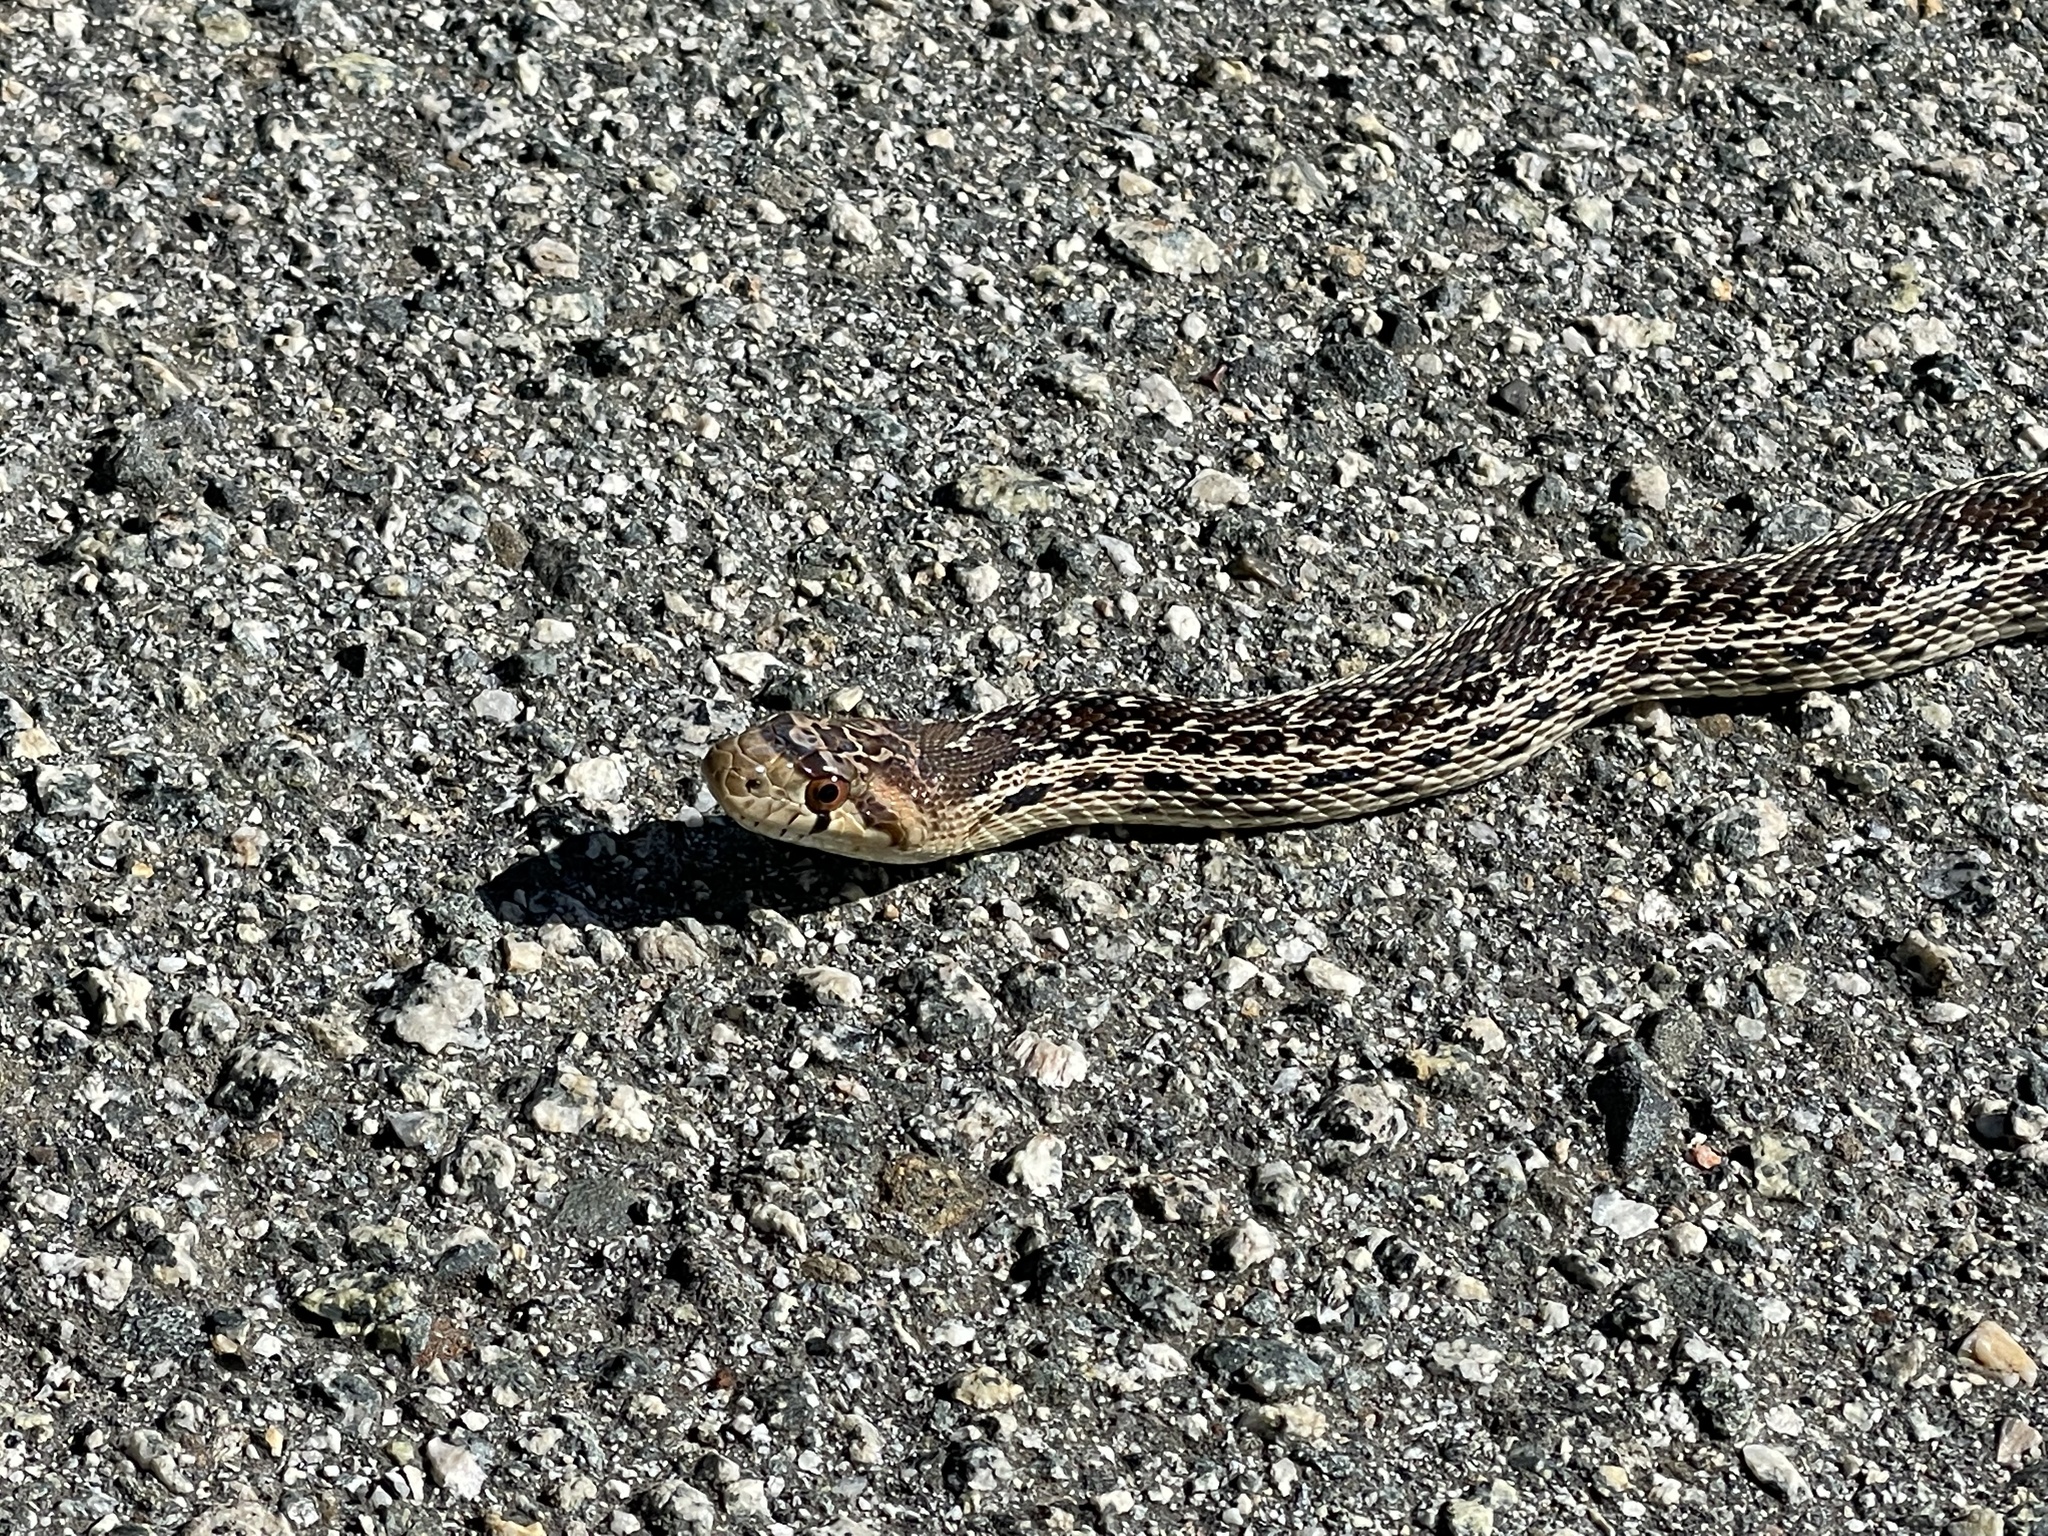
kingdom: Animalia
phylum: Chordata
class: Squamata
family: Colubridae
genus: Pituophis
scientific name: Pituophis catenifer
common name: Gopher snake
